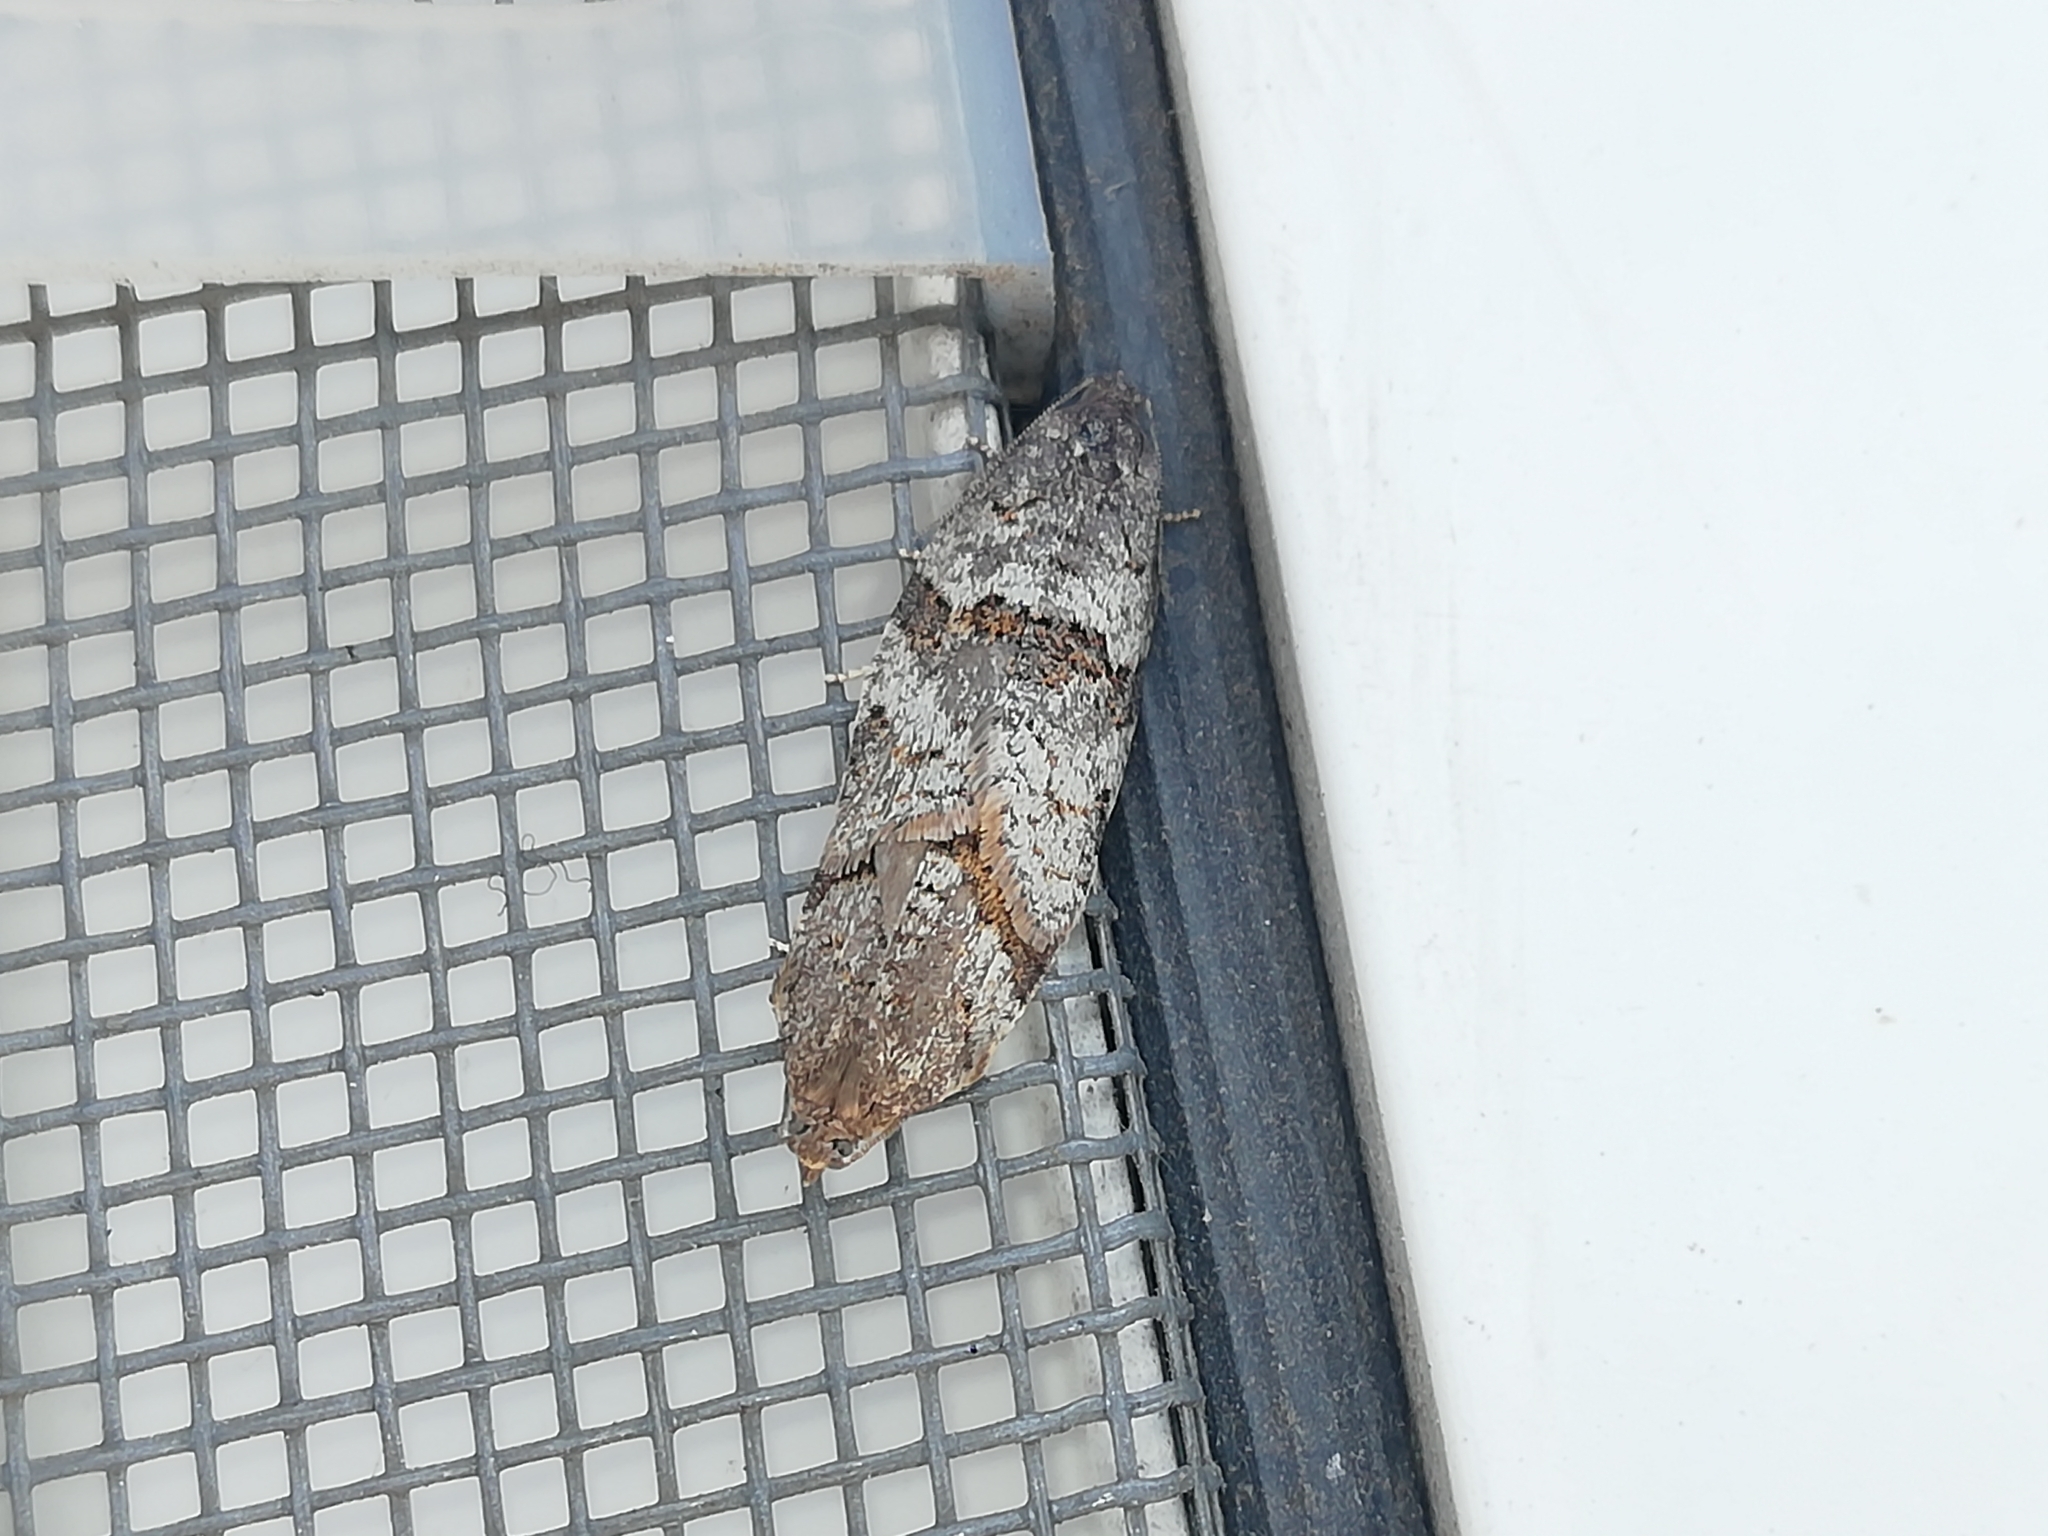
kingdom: Animalia
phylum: Arthropoda
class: Insecta
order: Lepidoptera
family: Tortricidae
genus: Syndemis
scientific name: Syndemis musculana
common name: Dark-barred twist
